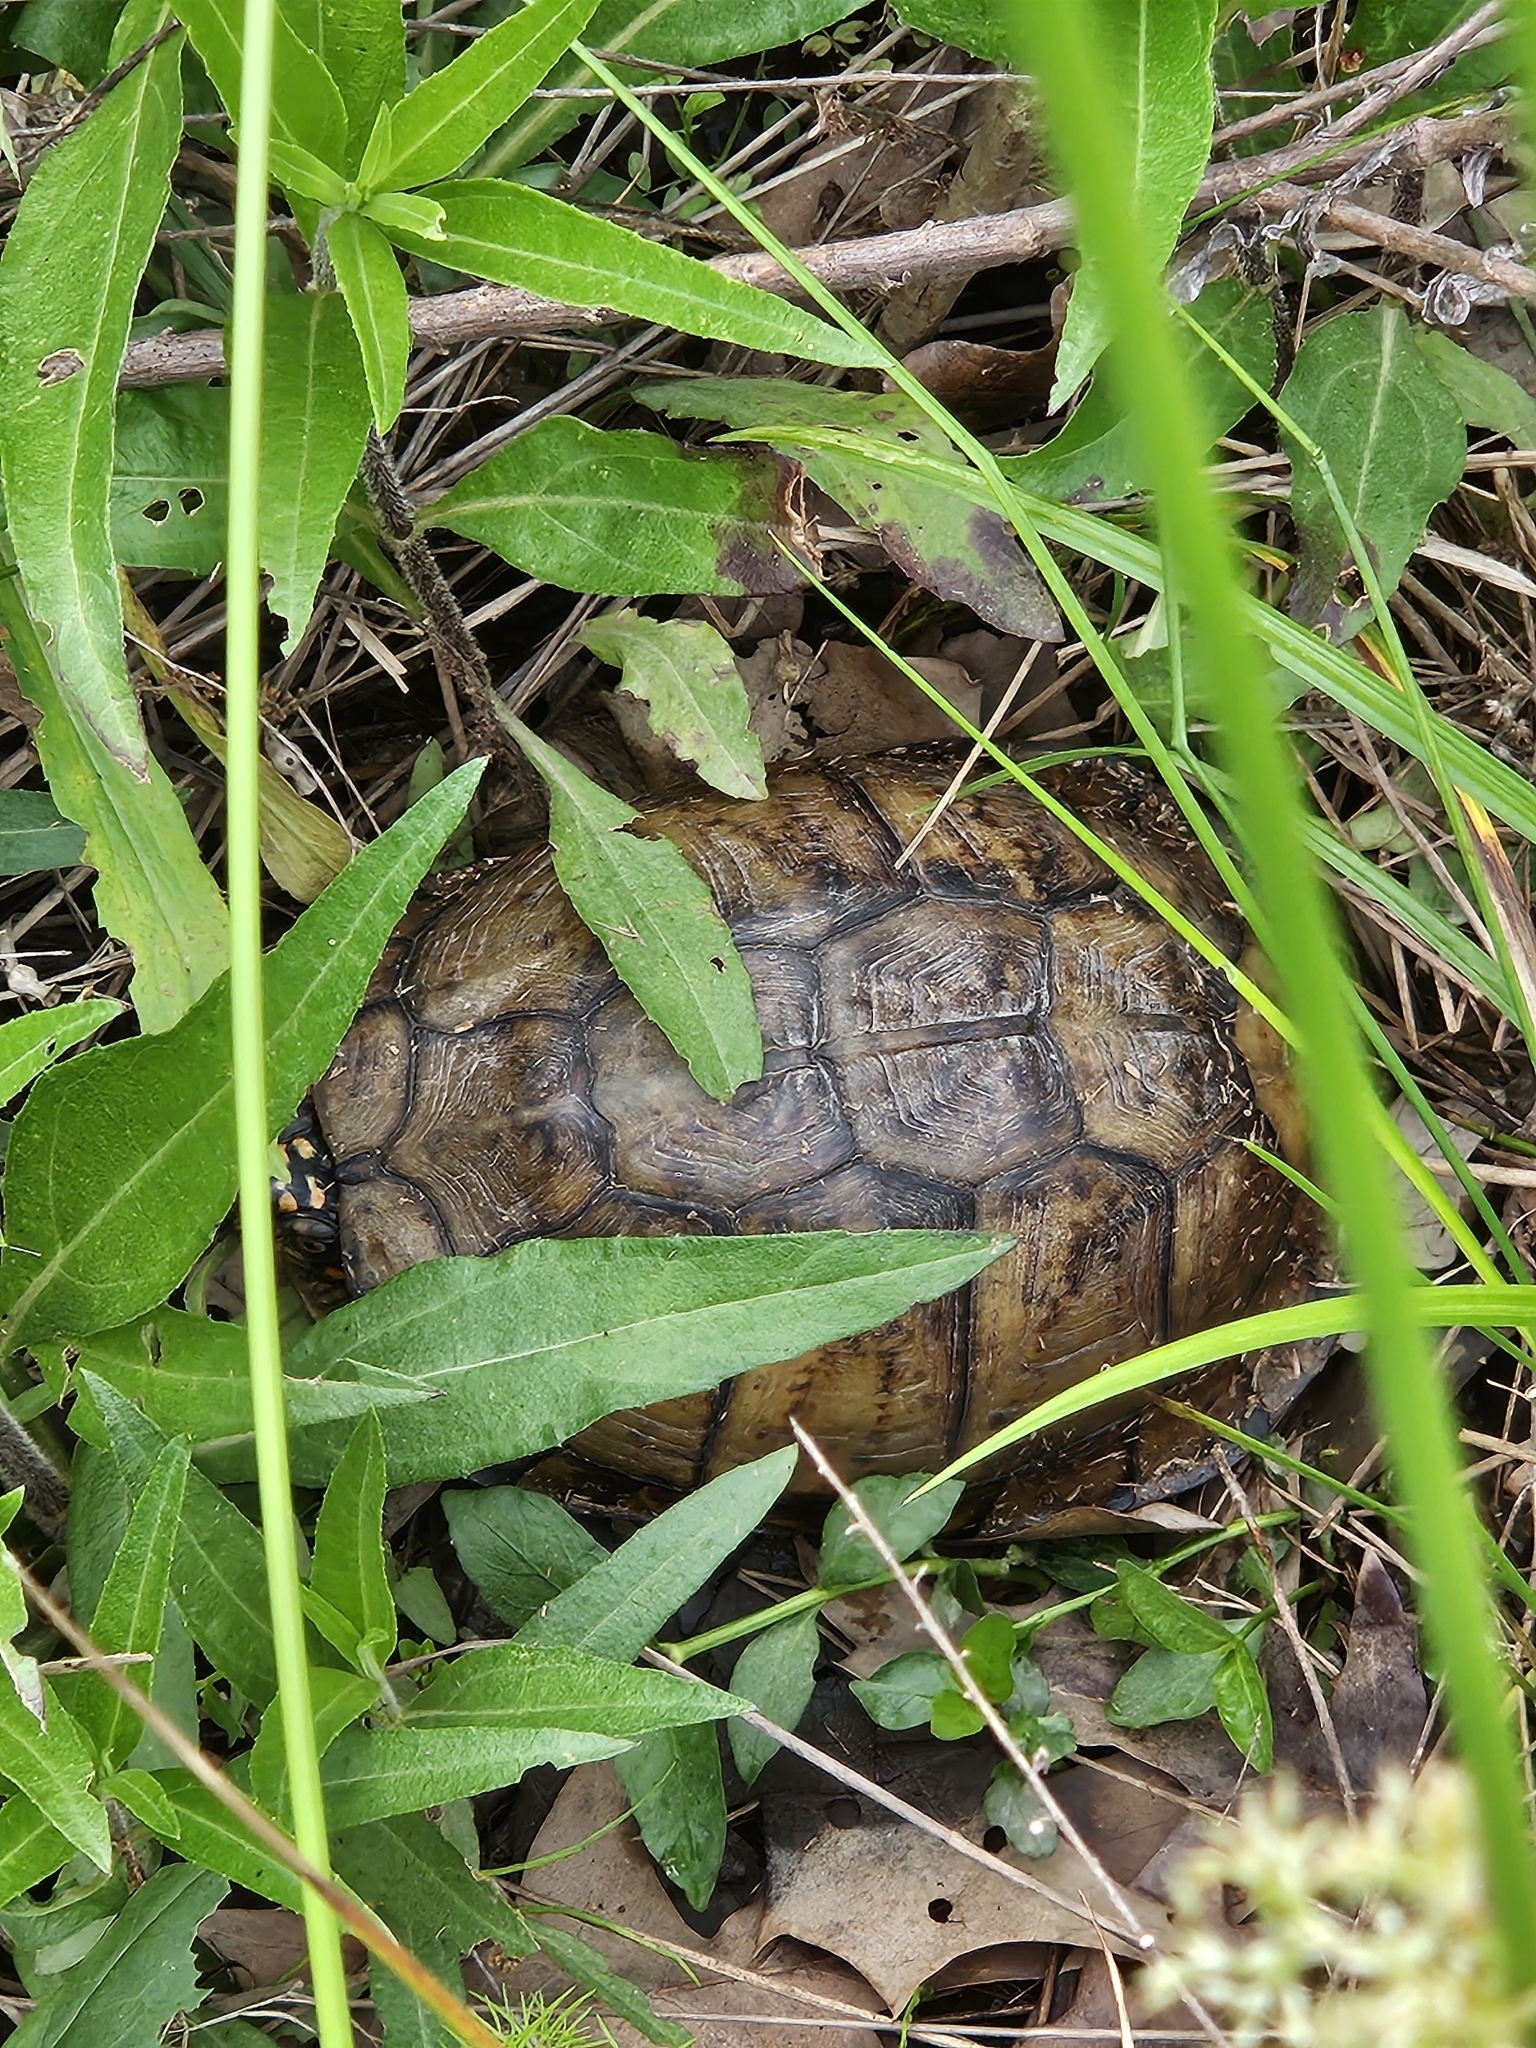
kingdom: Animalia
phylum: Chordata
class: Testudines
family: Emydidae
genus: Terrapene
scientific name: Terrapene carolina
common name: Common box turtle
